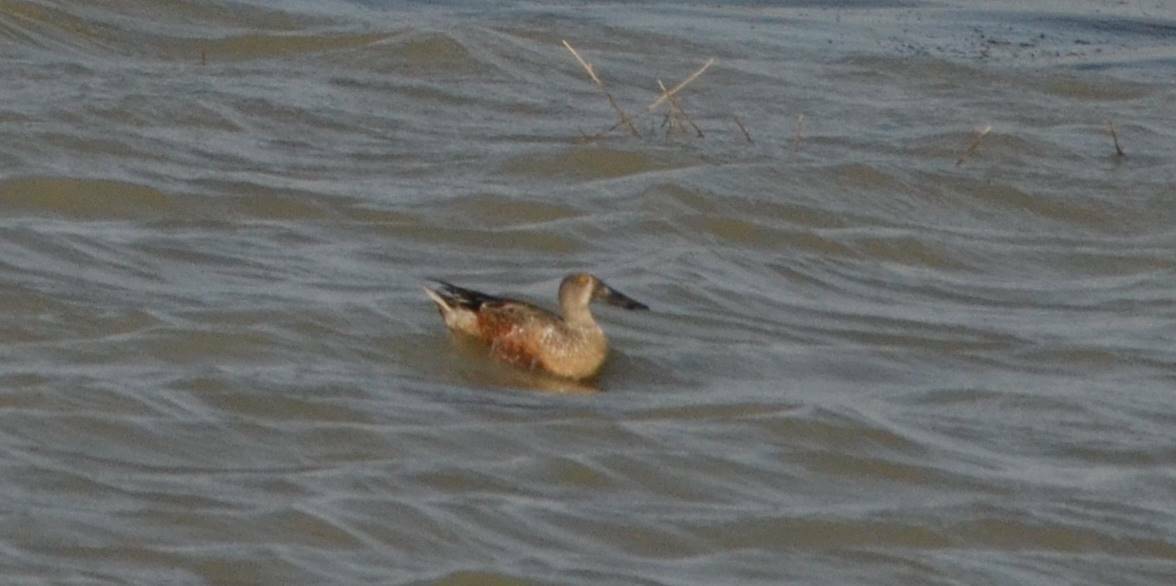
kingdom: Animalia
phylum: Chordata
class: Aves
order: Anseriformes
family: Anatidae
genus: Spatula
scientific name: Spatula clypeata
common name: Northern shoveler
